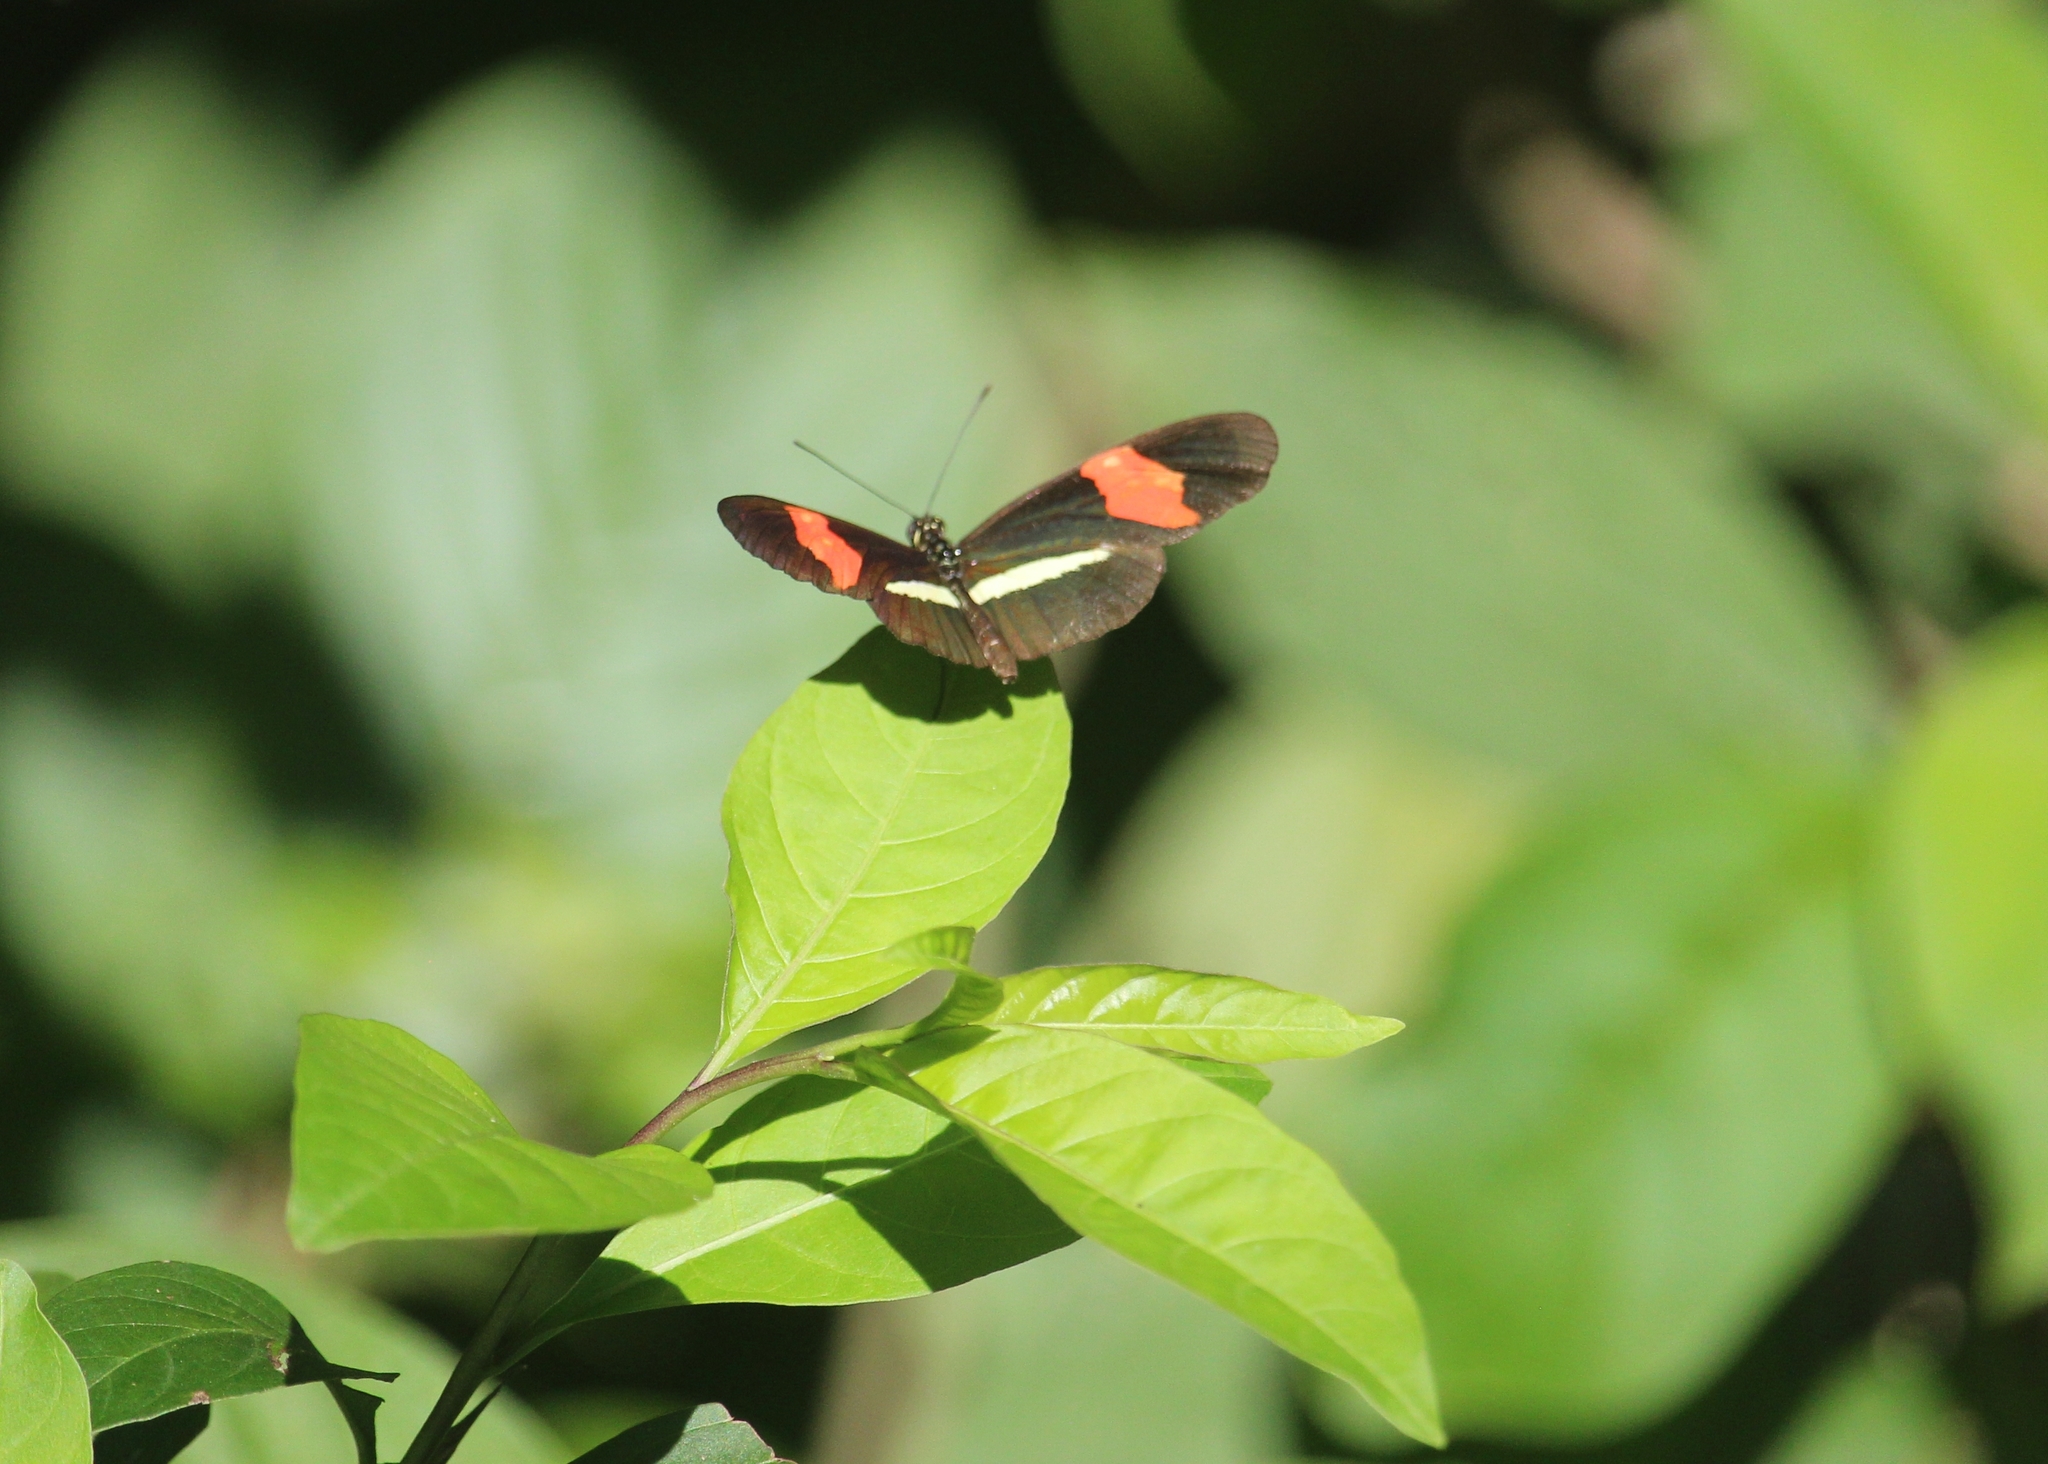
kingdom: Animalia
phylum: Arthropoda
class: Insecta
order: Lepidoptera
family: Nymphalidae
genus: Tirumala
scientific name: Tirumala petiverana
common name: Blue monarch
